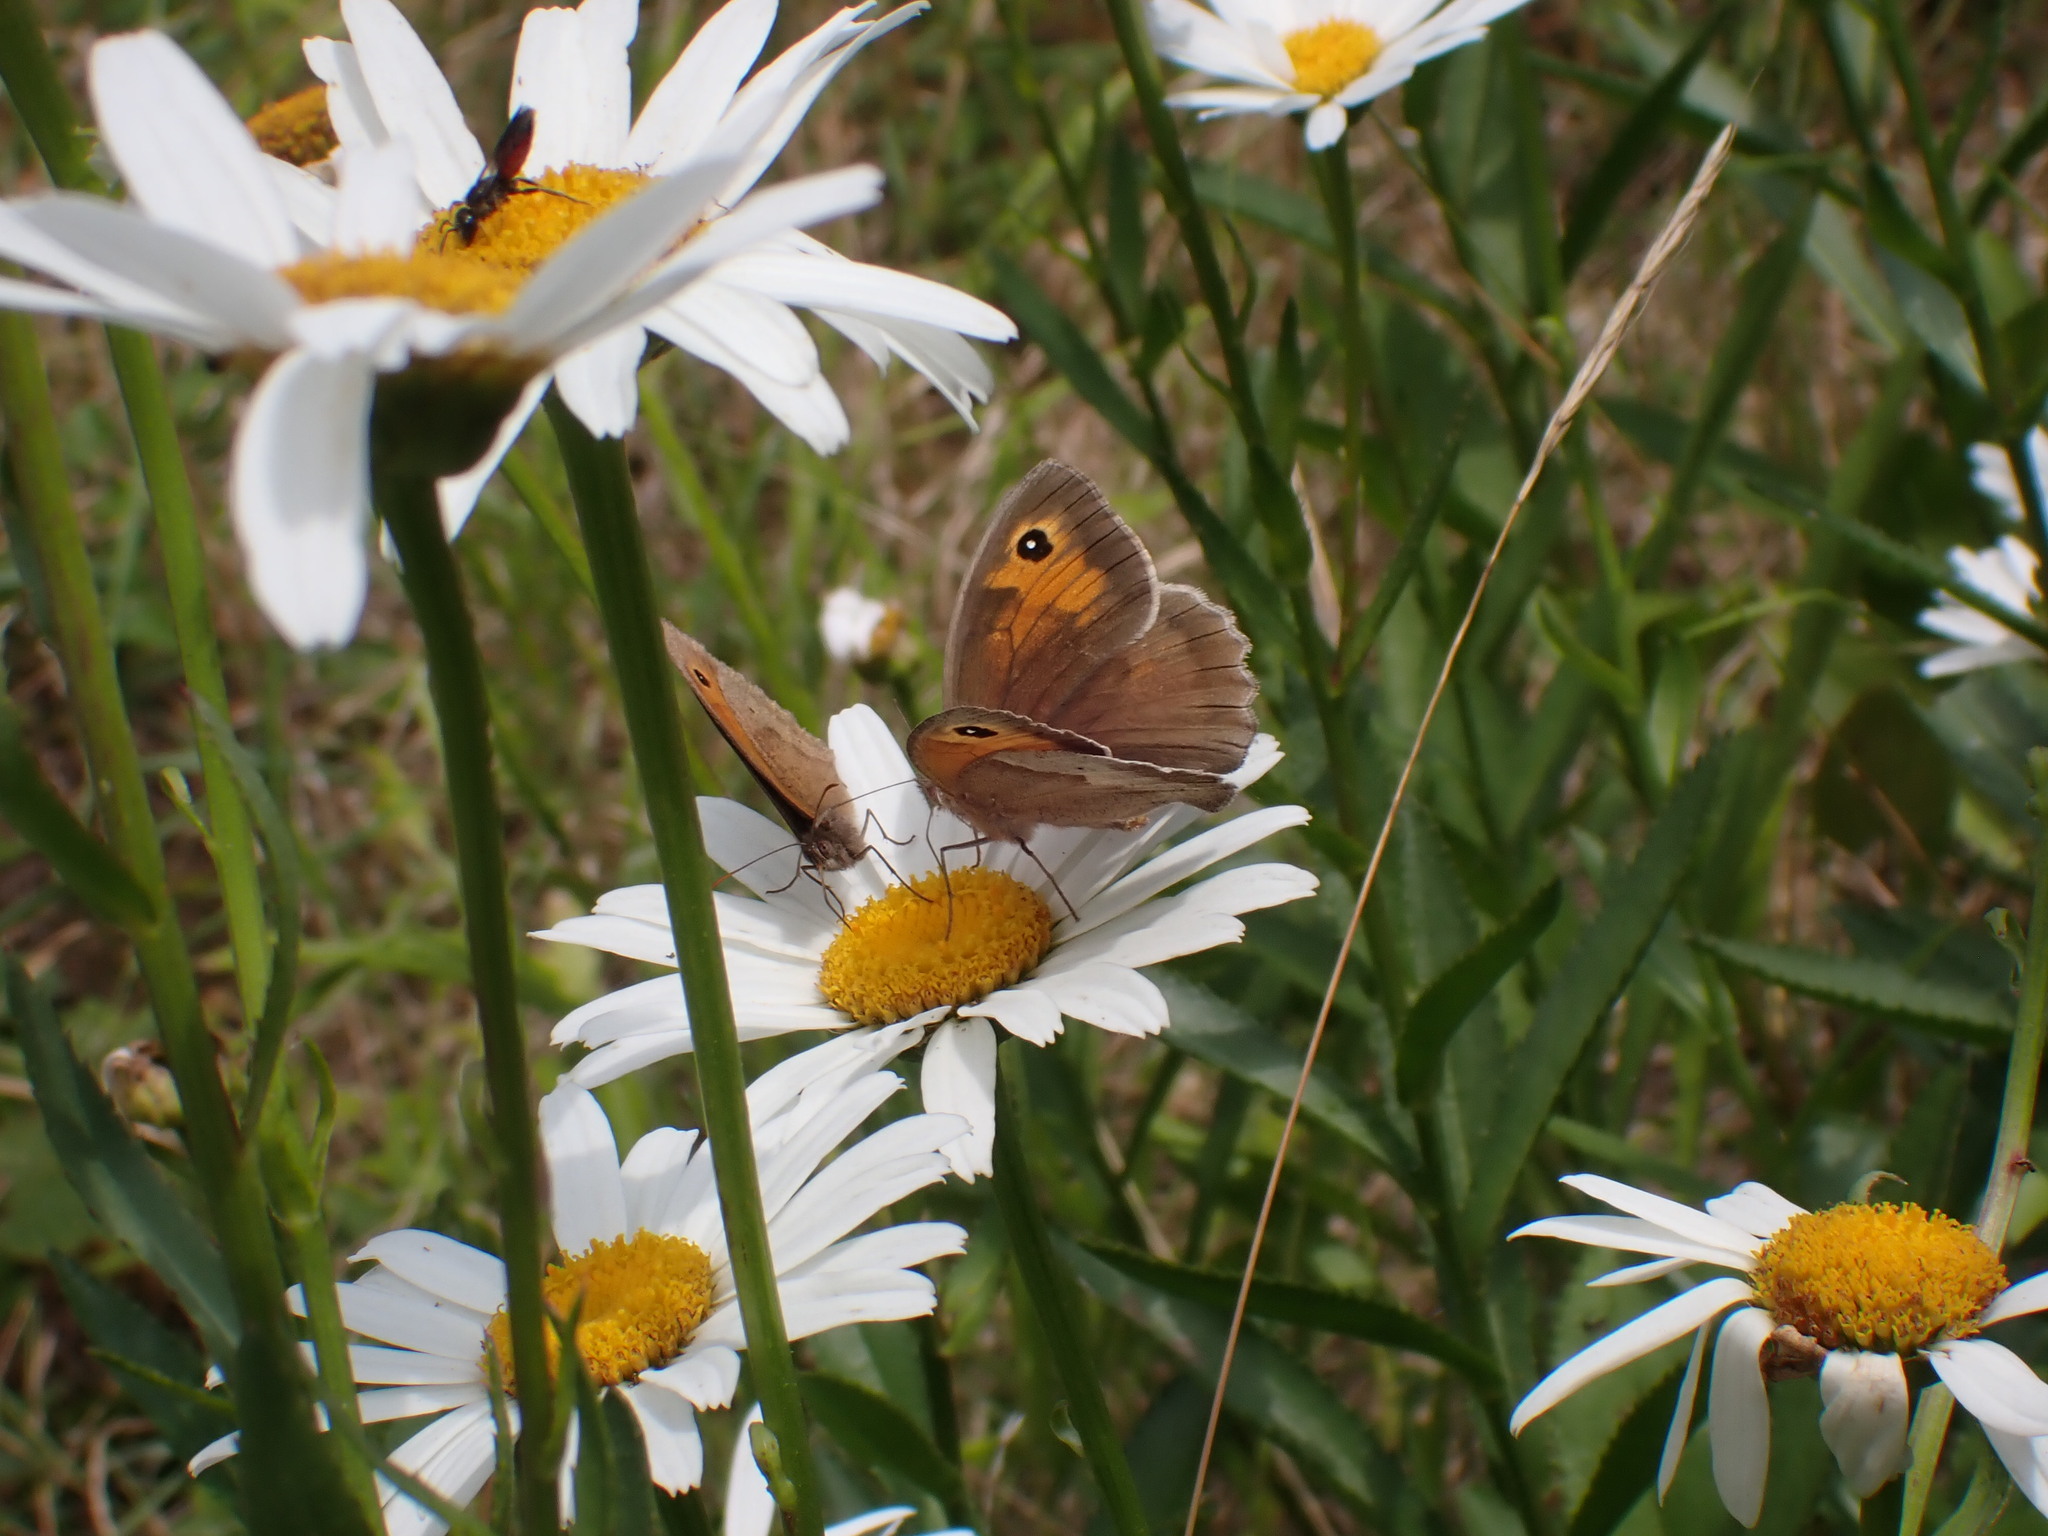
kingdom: Animalia
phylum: Arthropoda
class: Insecta
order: Lepidoptera
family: Nymphalidae
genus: Maniola
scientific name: Maniola jurtina
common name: Meadow brown
